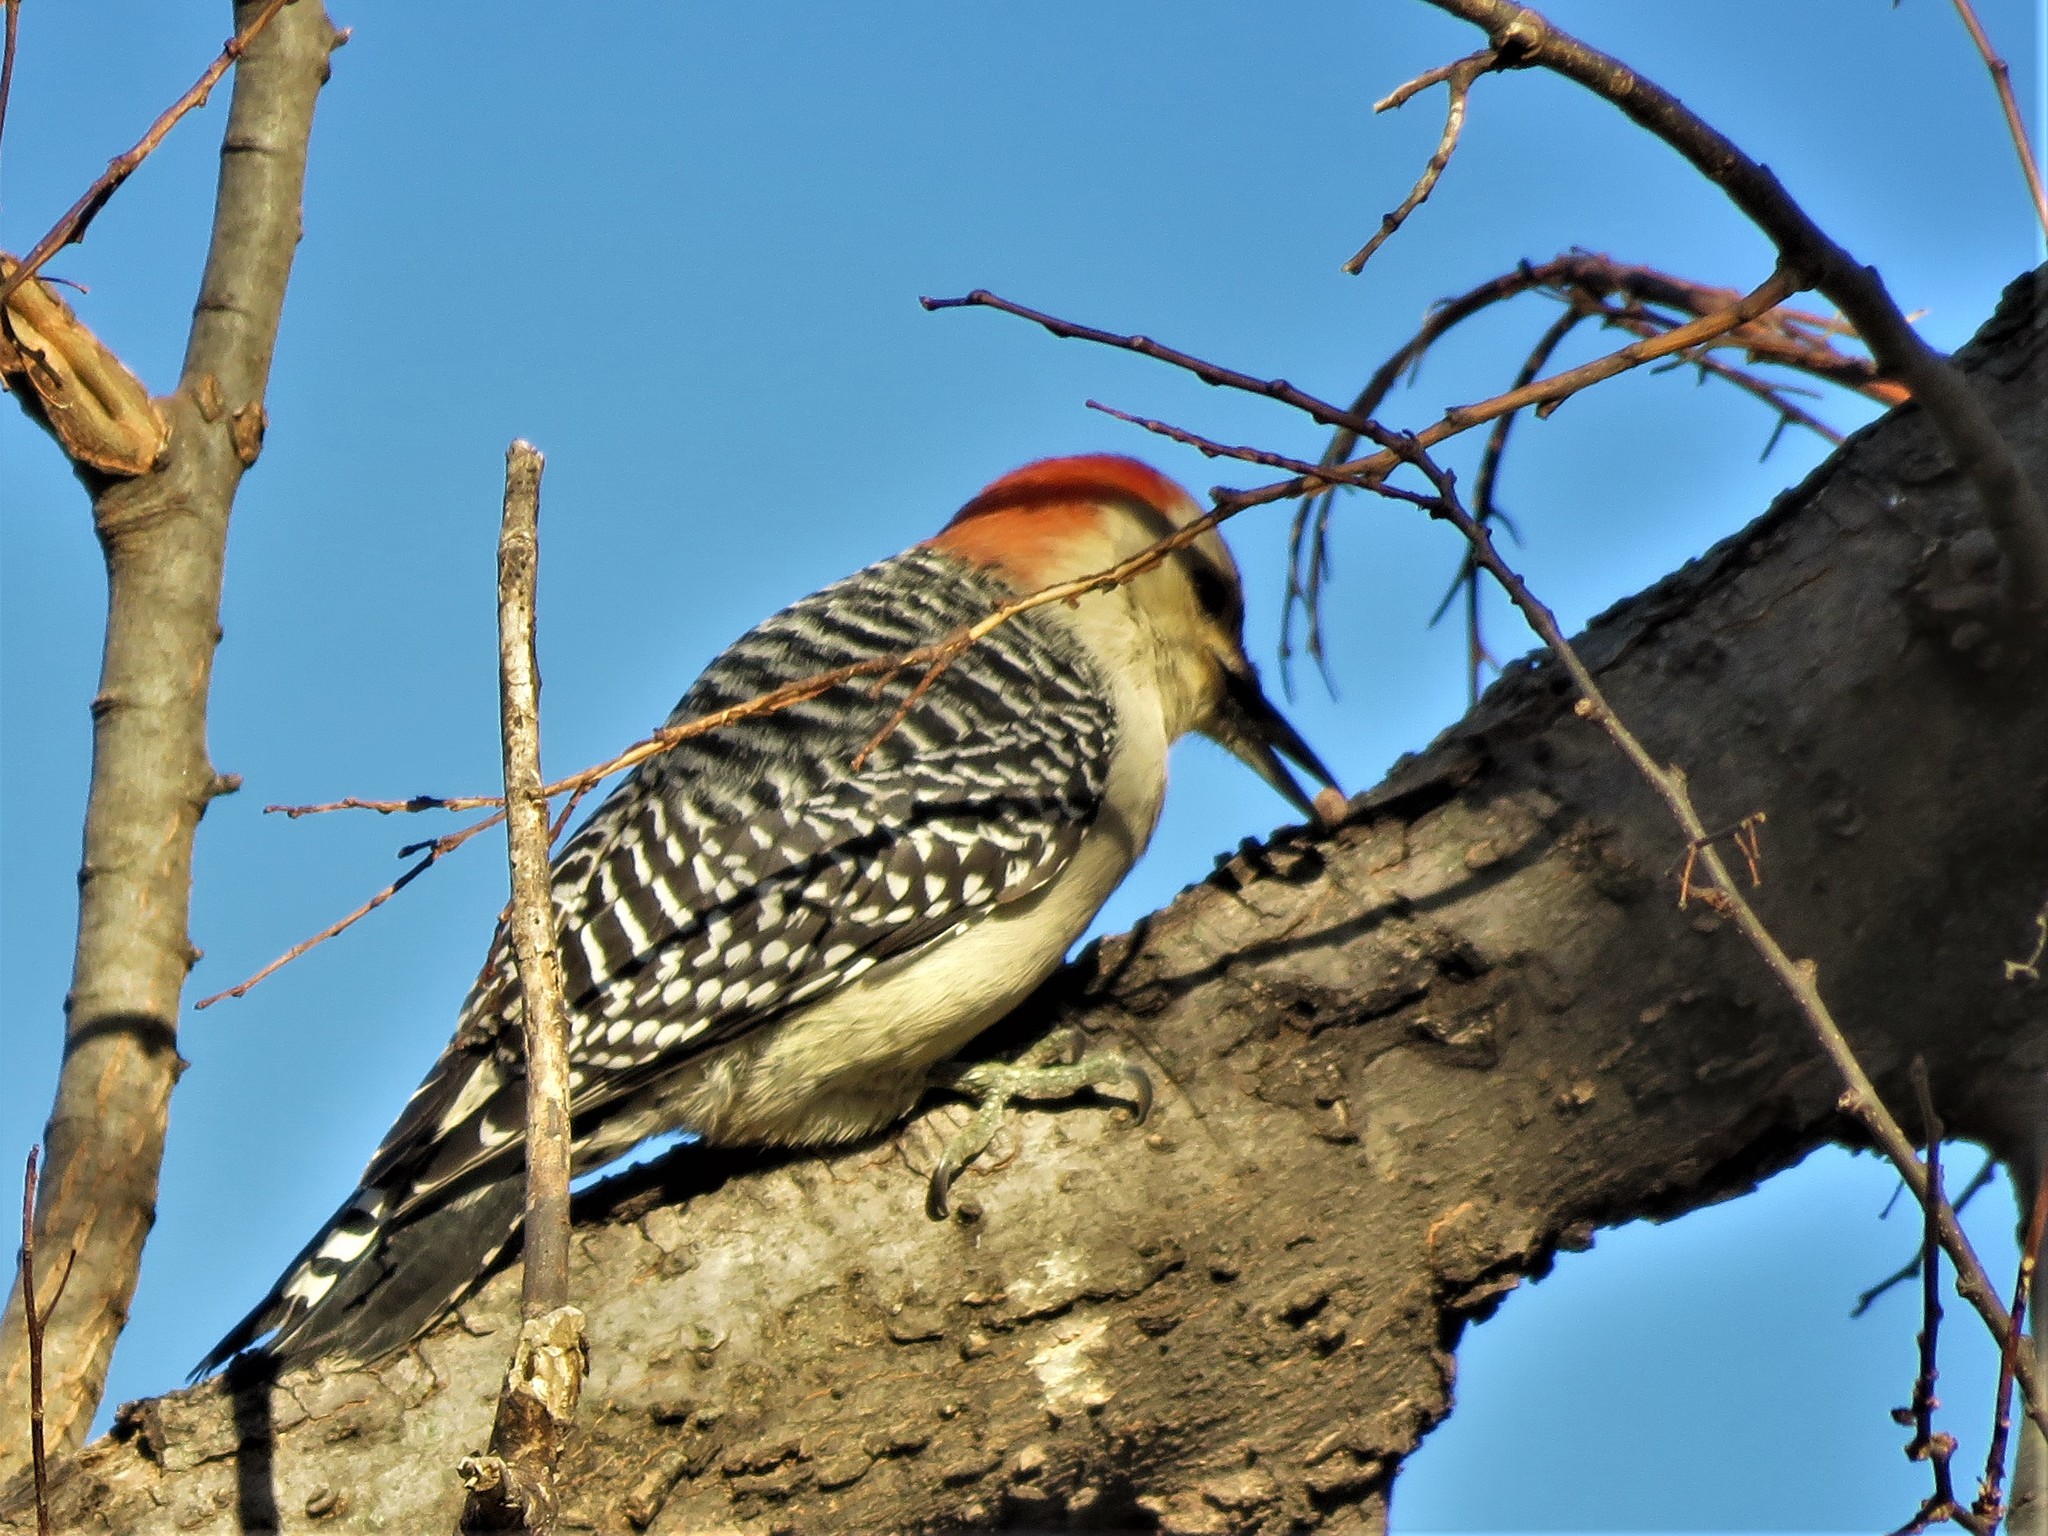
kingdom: Animalia
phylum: Chordata
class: Aves
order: Piciformes
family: Picidae
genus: Melanerpes
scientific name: Melanerpes carolinus
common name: Red-bellied woodpecker
